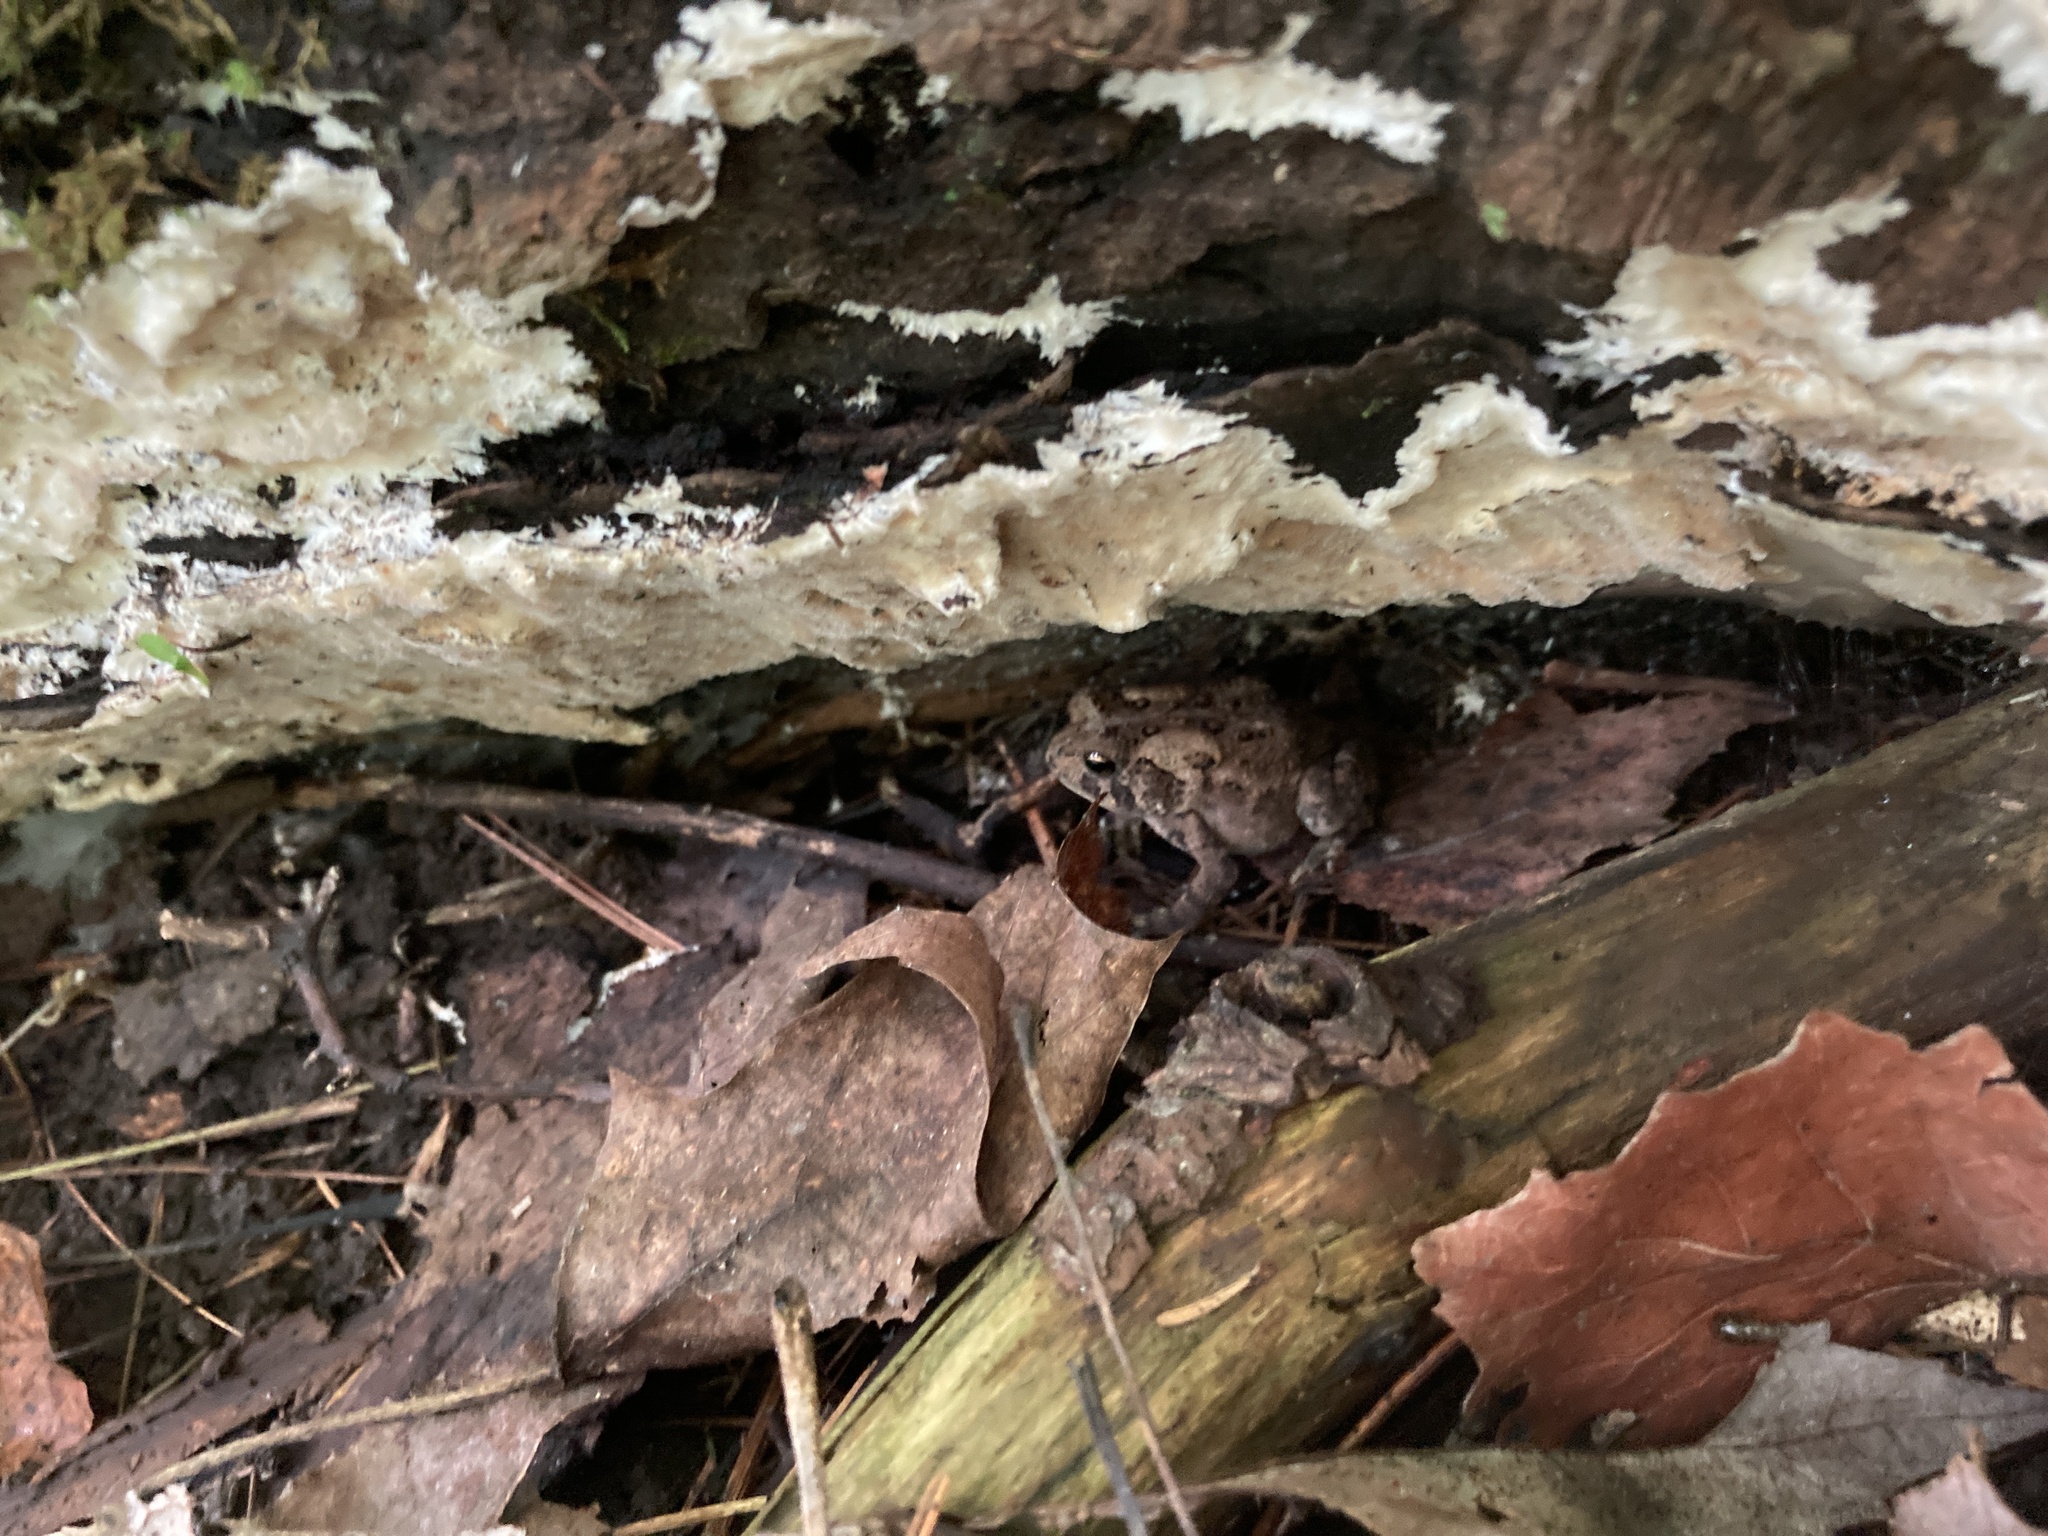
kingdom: Animalia
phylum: Chordata
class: Amphibia
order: Anura
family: Bufonidae
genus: Anaxyrus
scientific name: Anaxyrus americanus
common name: American toad
